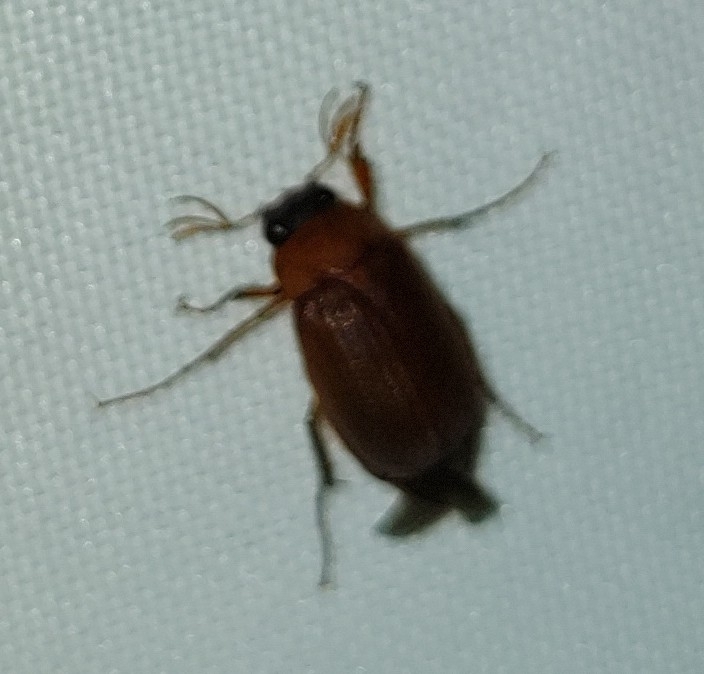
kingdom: Animalia
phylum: Arthropoda
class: Insecta
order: Coleoptera
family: Scarabaeidae
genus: Serica
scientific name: Serica brunnea
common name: Brown chafer
